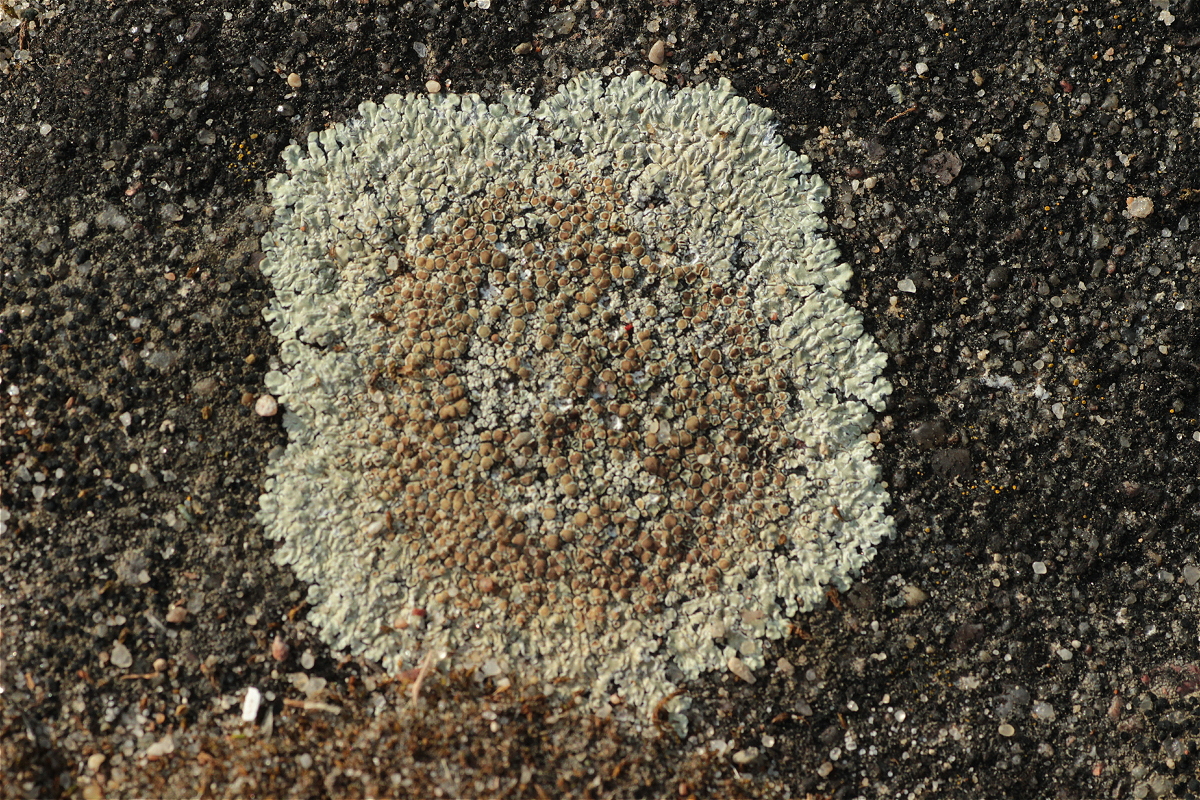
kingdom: Fungi
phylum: Ascomycota
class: Lecanoromycetes
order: Lecanorales
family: Lecanoraceae
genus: Protoparmeliopsis
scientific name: Protoparmeliopsis muralis
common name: Stonewall rim lichen
